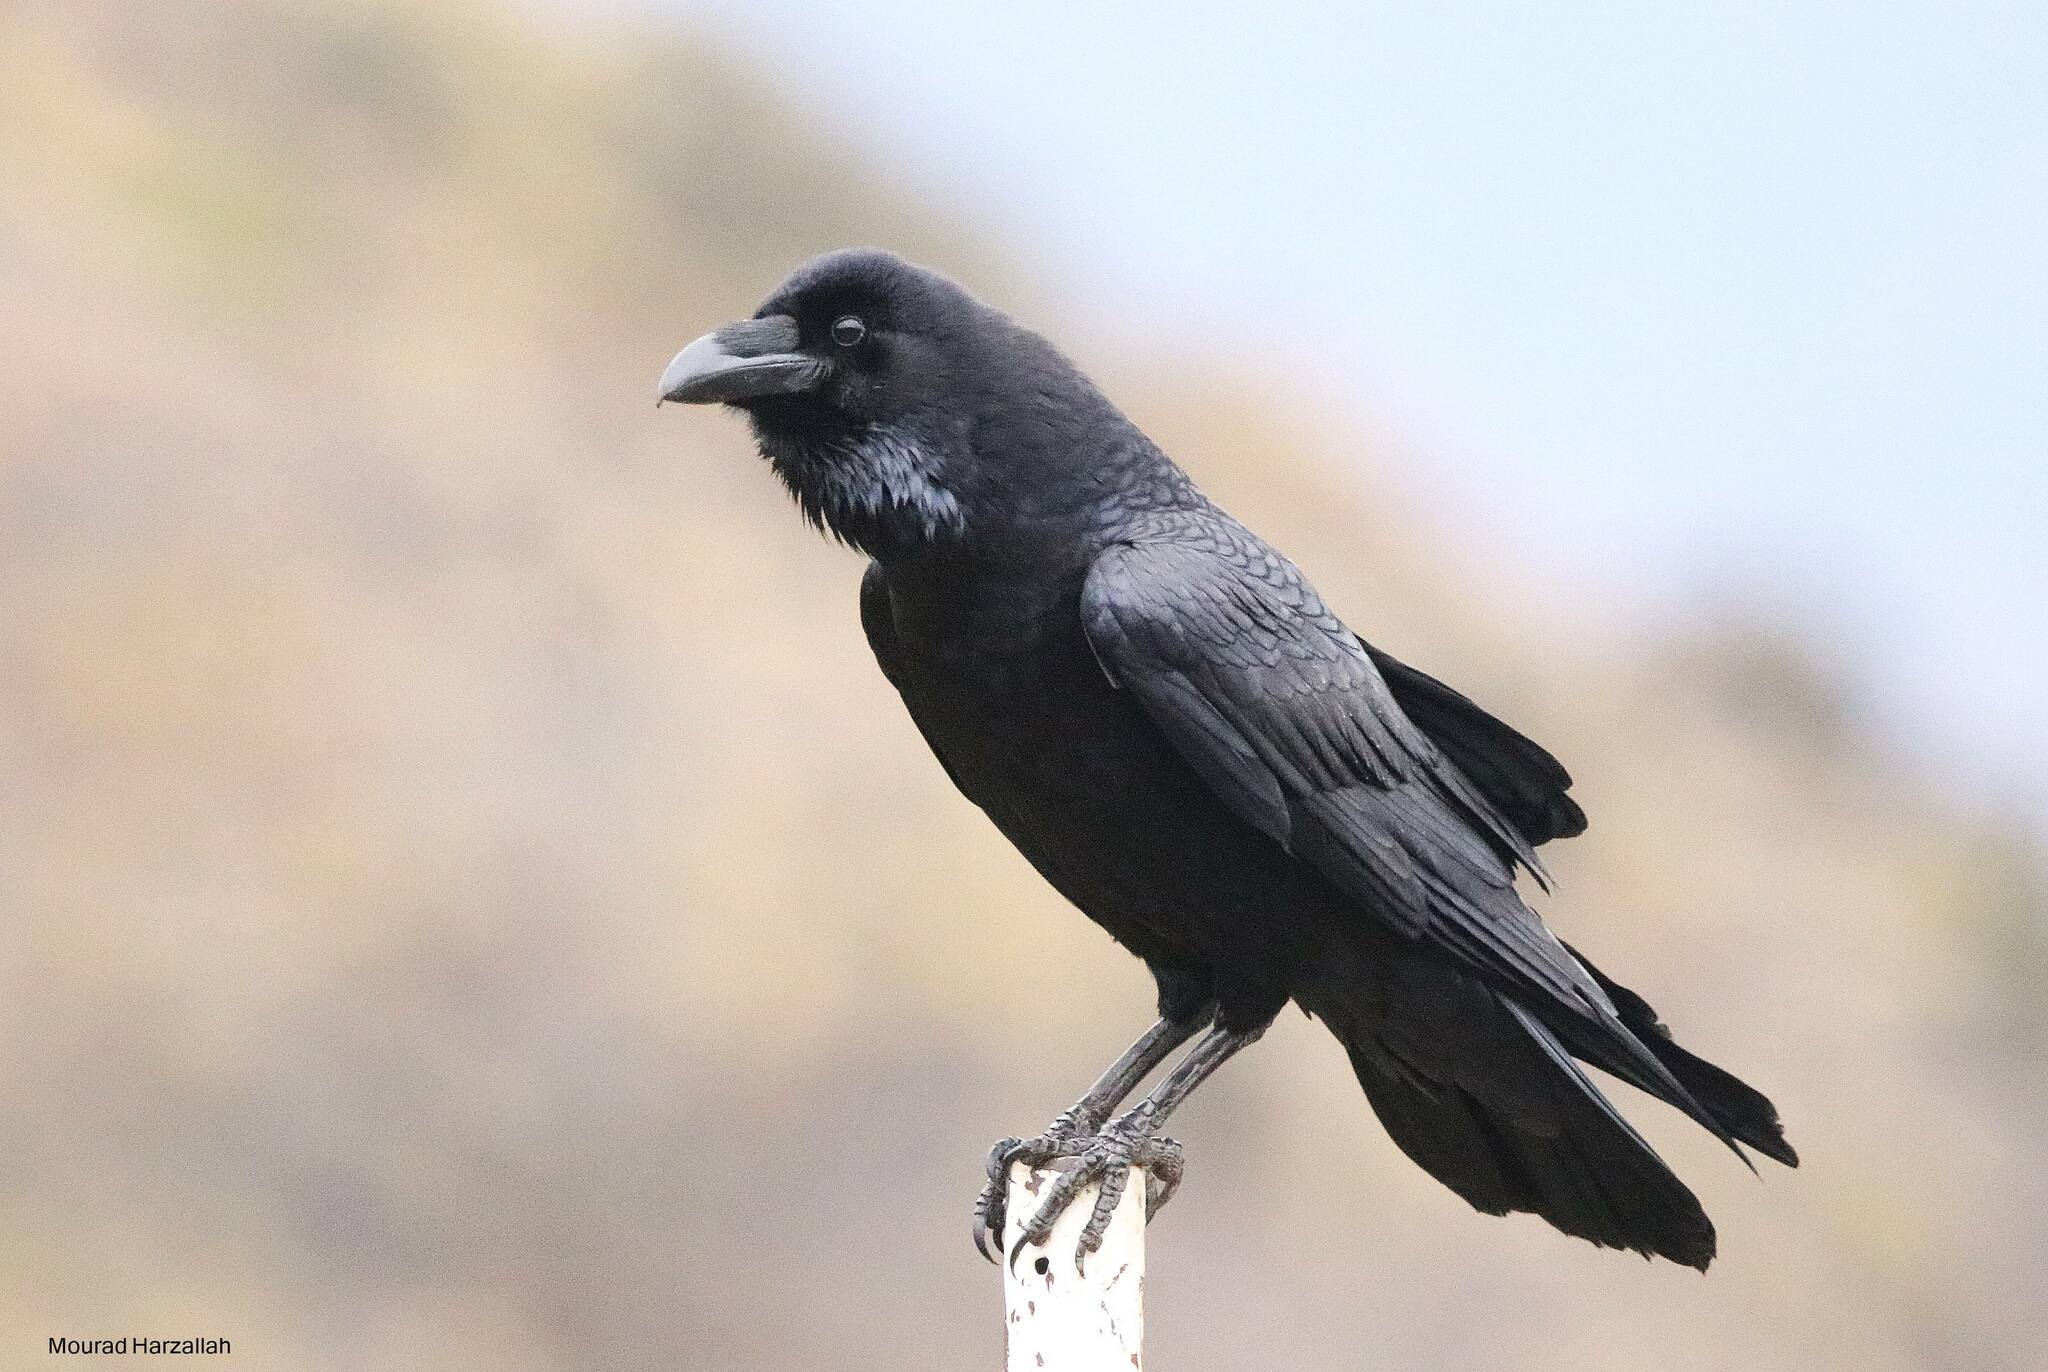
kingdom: Animalia
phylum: Chordata
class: Aves
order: Passeriformes
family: Corvidae
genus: Corvus
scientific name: Corvus corax
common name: Common raven
